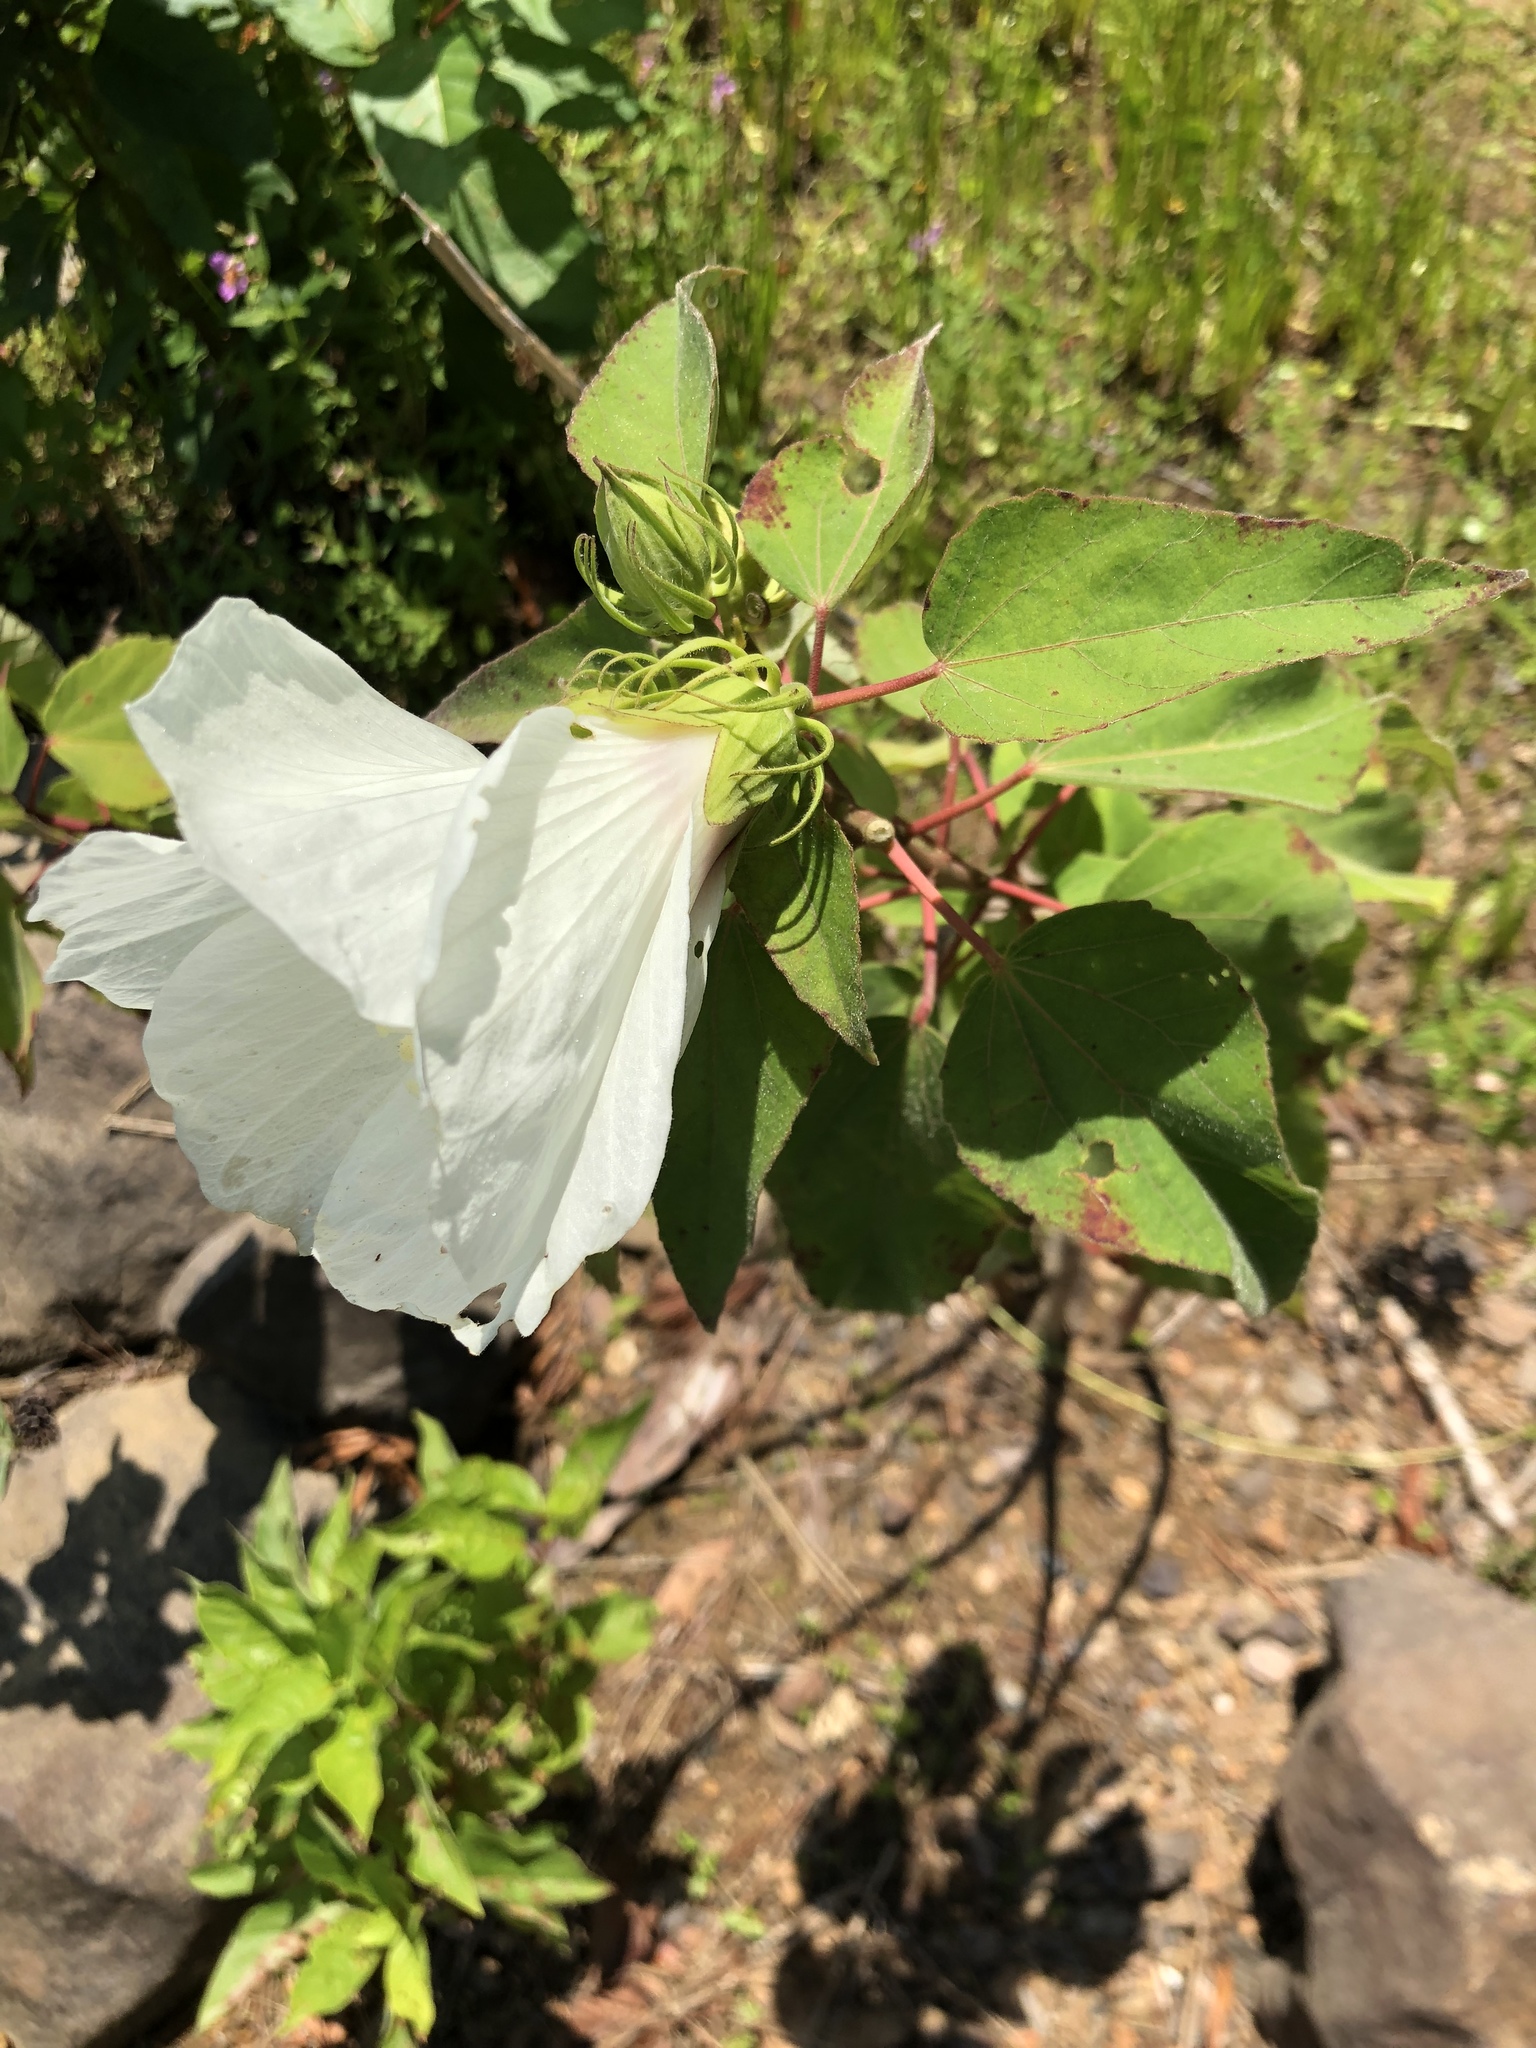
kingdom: Plantae
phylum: Tracheophyta
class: Magnoliopsida
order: Malvales
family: Malvaceae
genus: Hibiscus
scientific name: Hibiscus moscheutos
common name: Common rose-mallow
